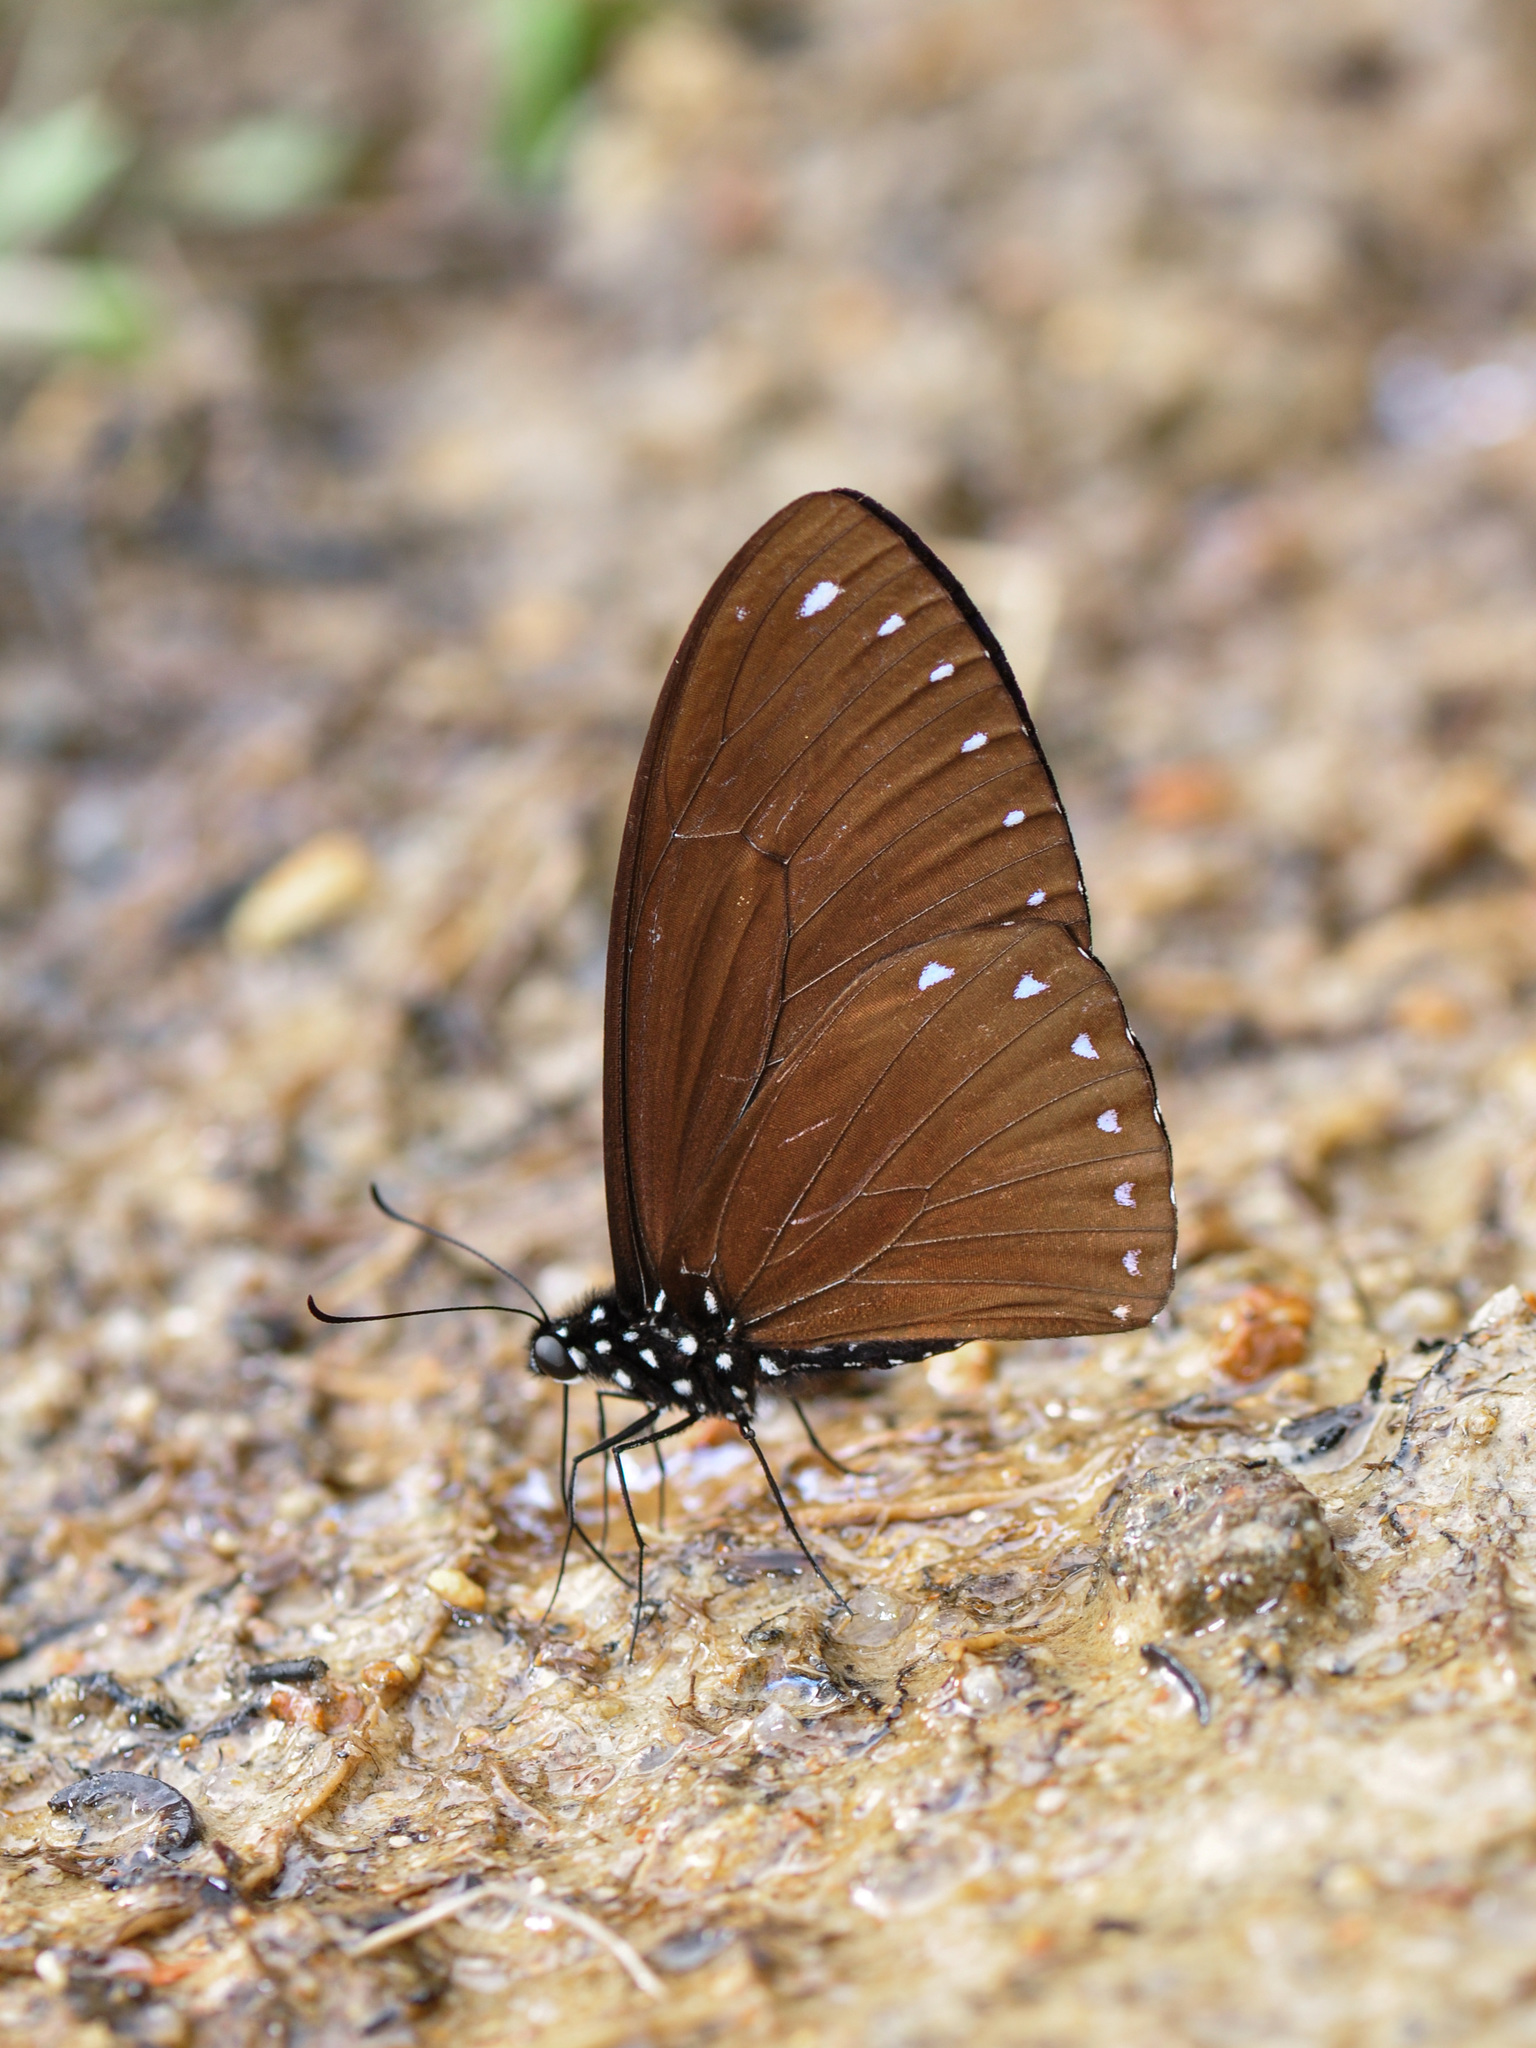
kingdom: Animalia
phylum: Arthropoda
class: Insecta
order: Lepidoptera
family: Papilionidae
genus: Papilio
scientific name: Papilio paradoxa
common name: Great blue mime swallowtail
